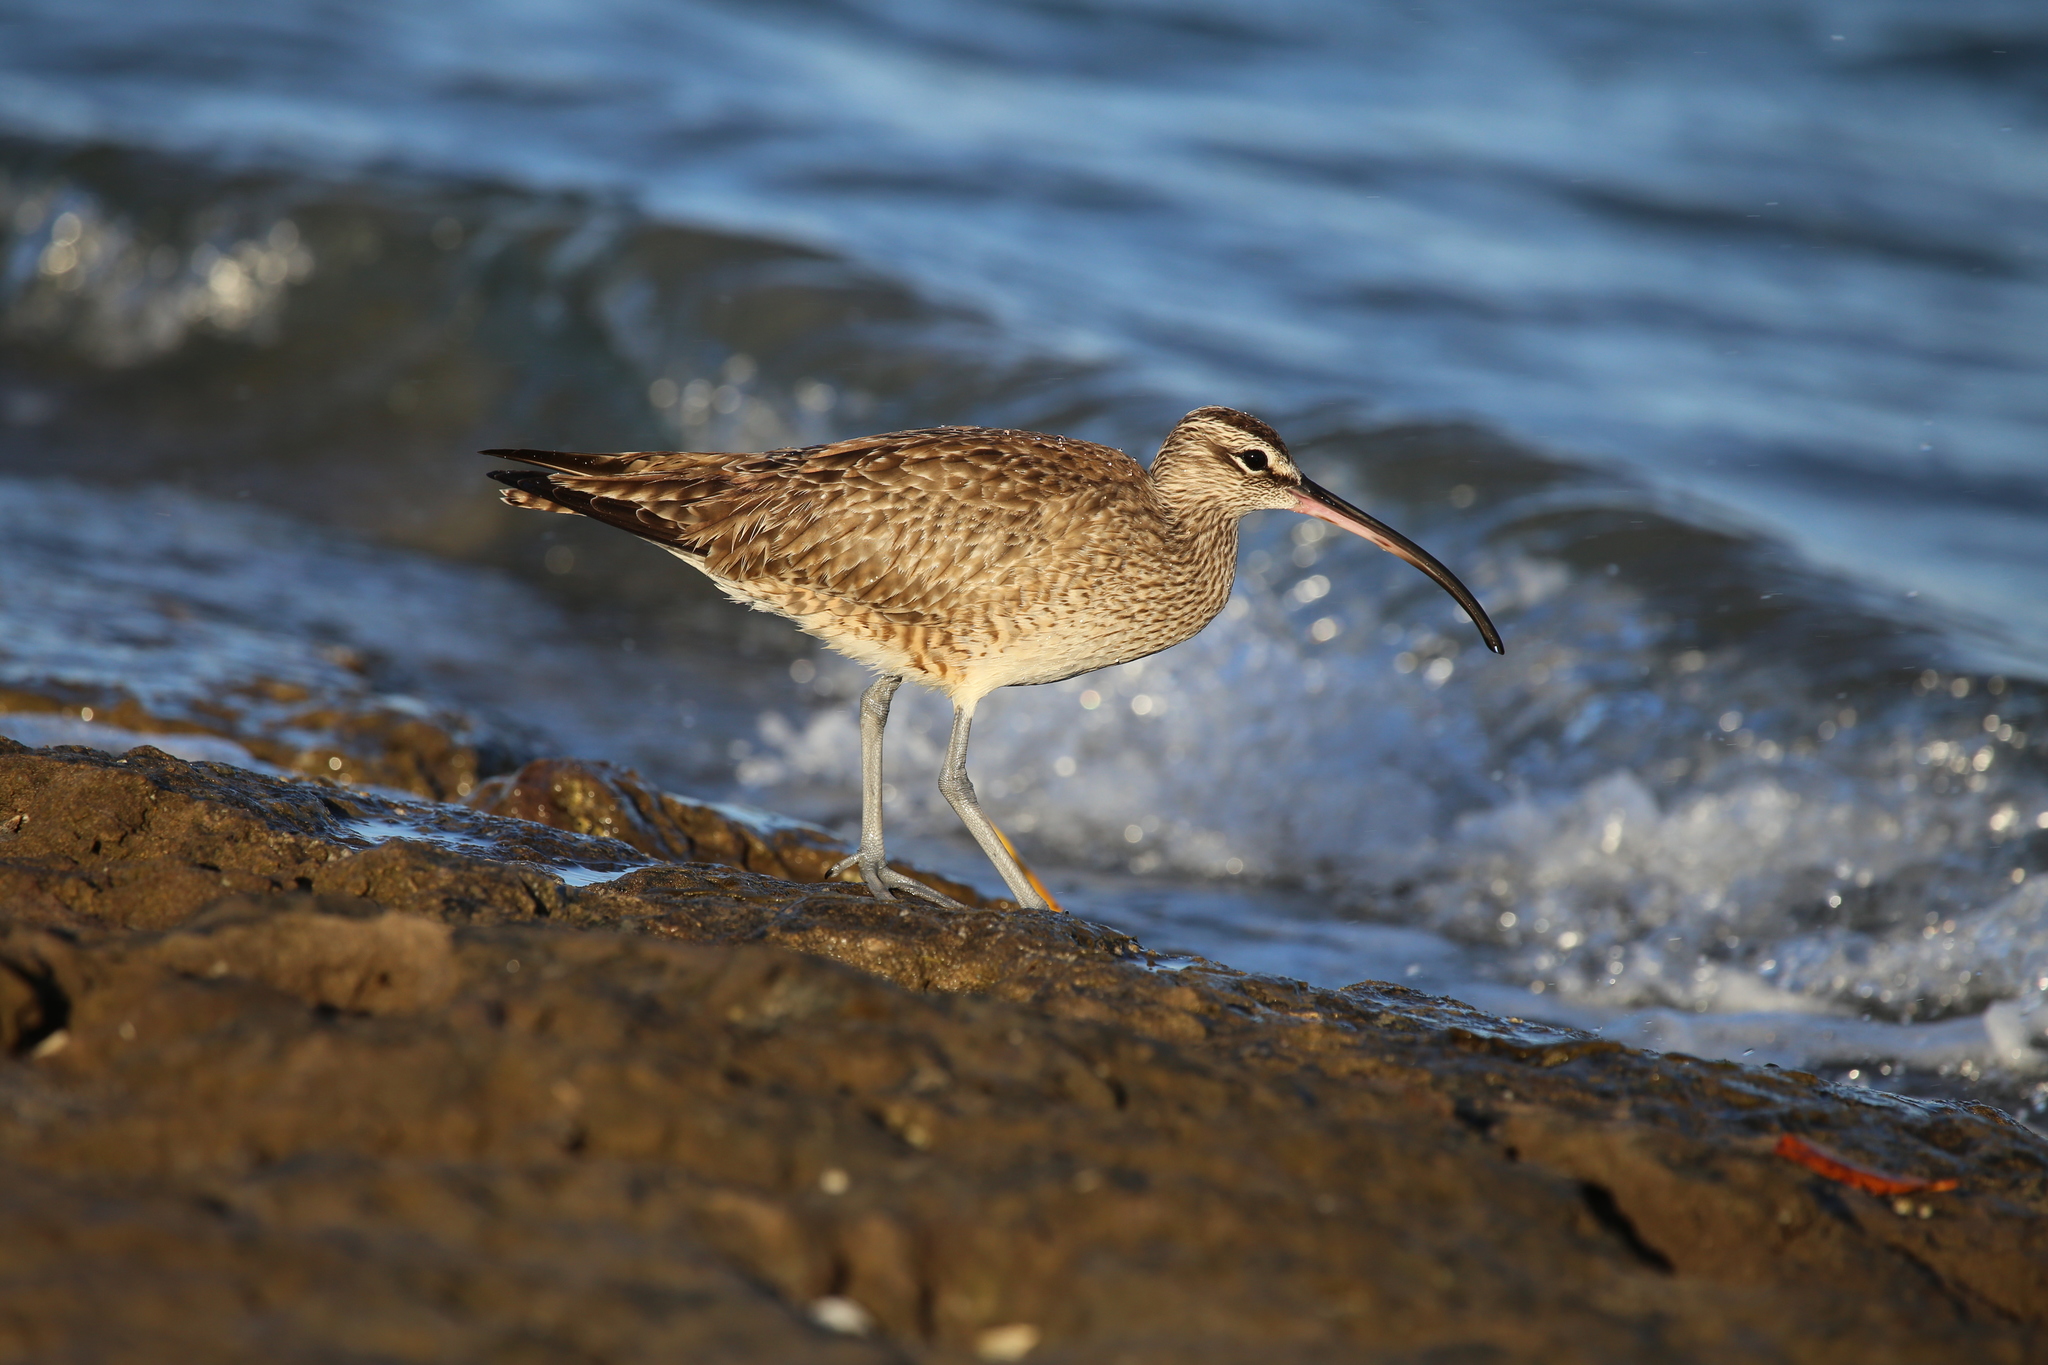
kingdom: Animalia
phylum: Chordata
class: Aves
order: Charadriiformes
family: Scolopacidae
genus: Numenius
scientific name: Numenius phaeopus
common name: Whimbrel
